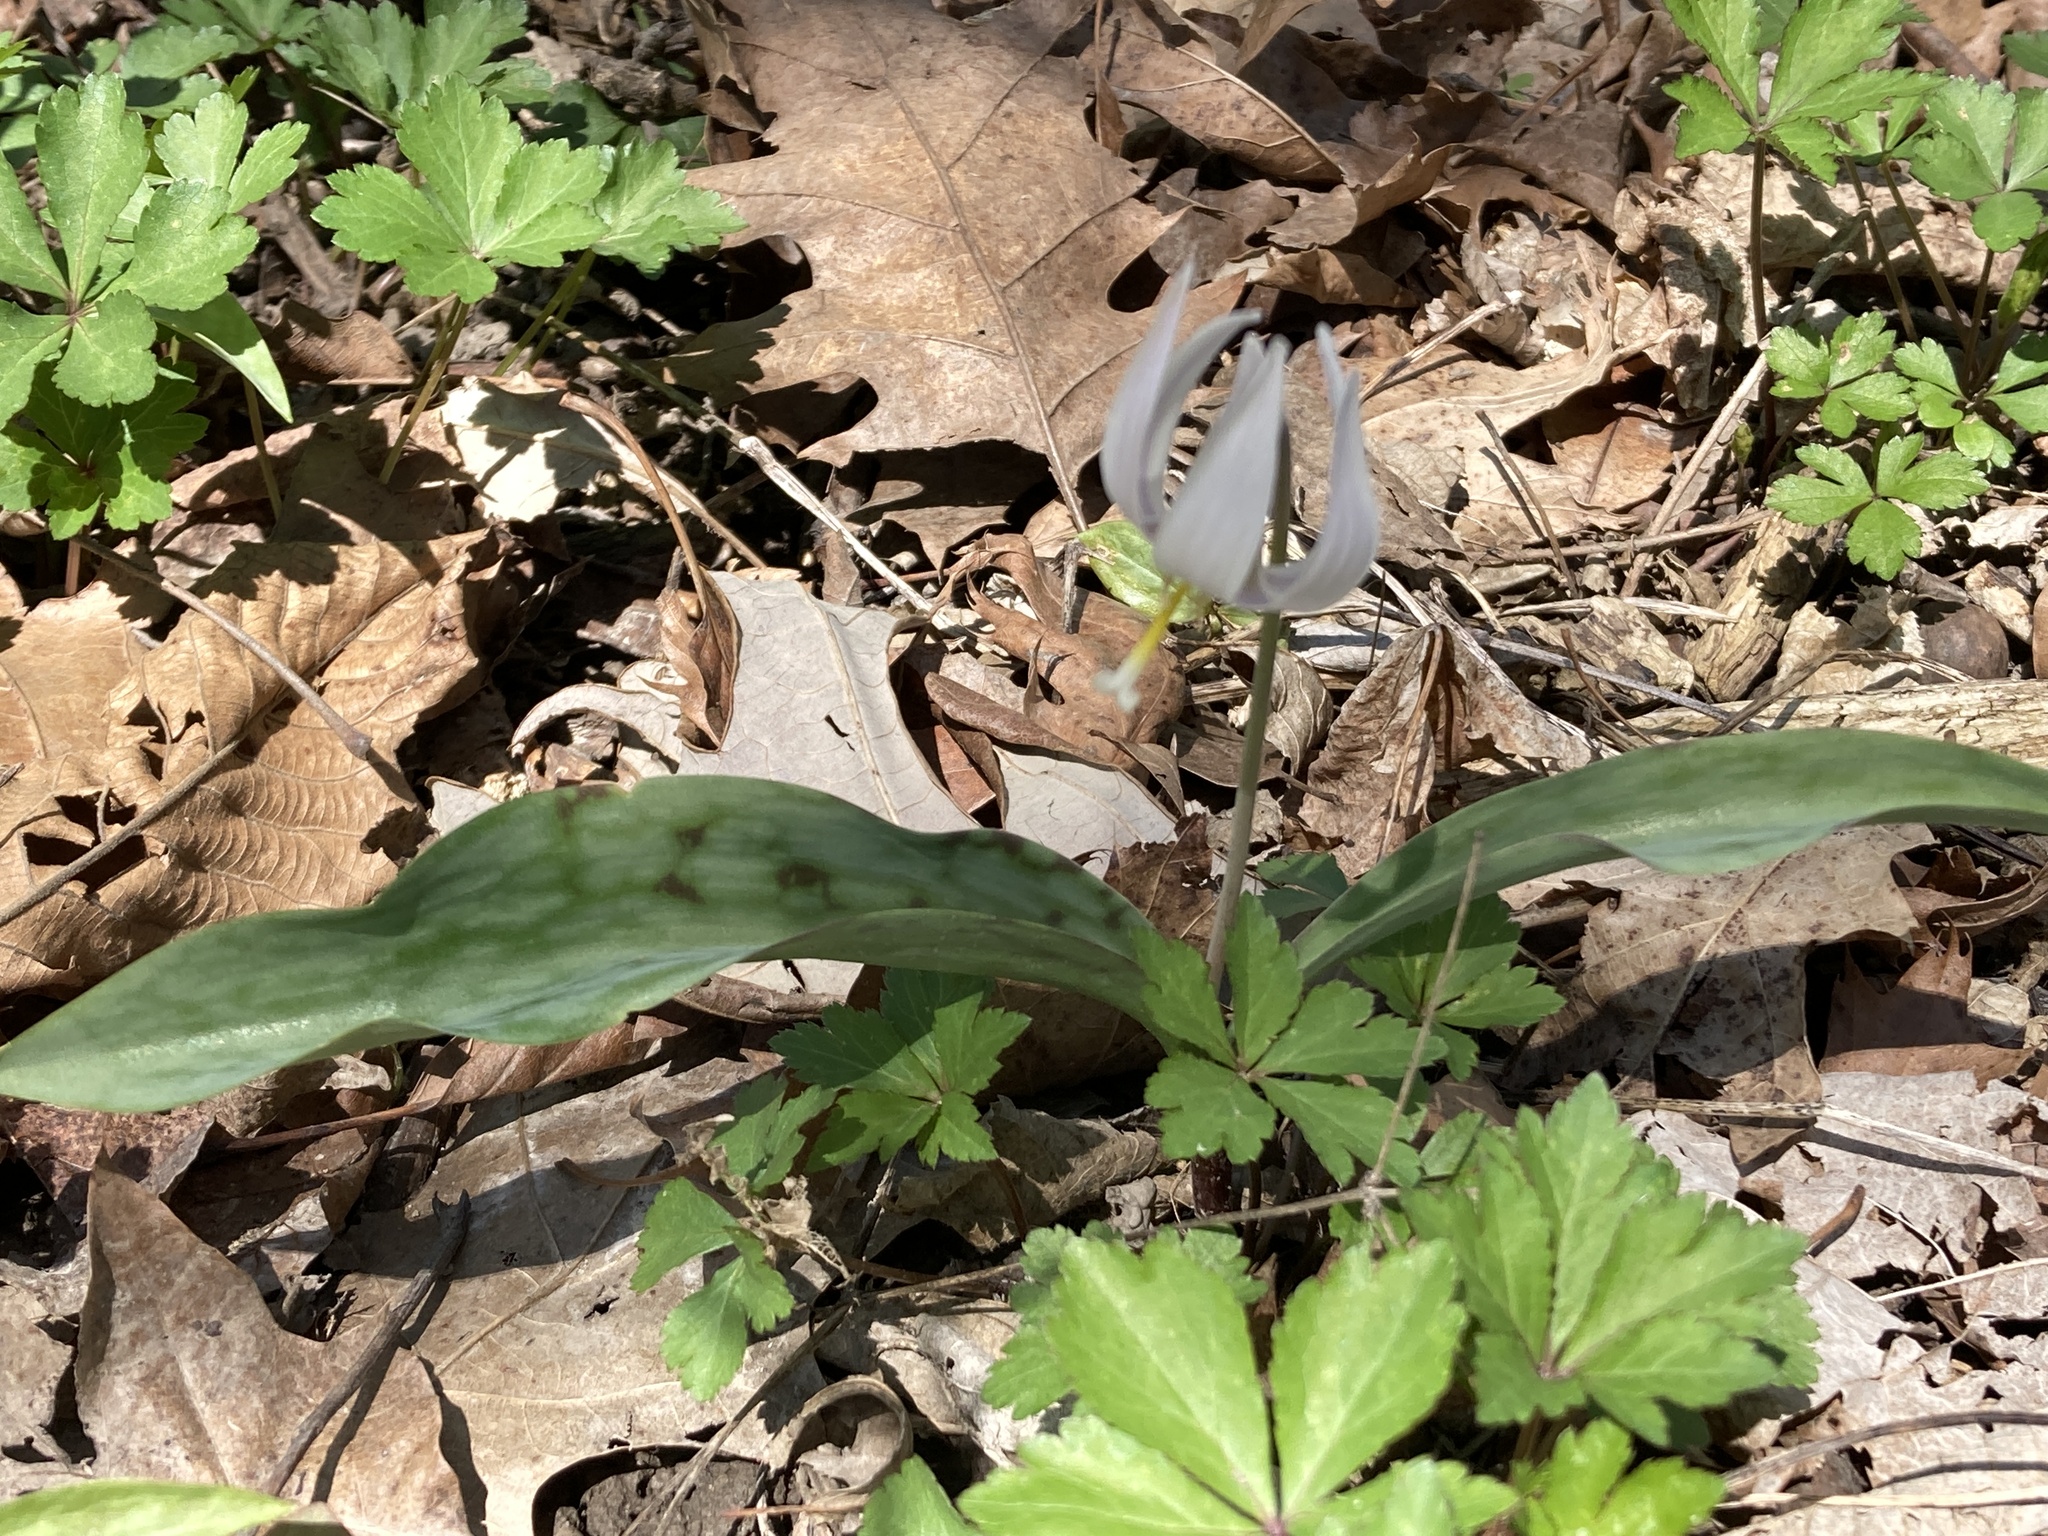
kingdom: Plantae
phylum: Tracheophyta
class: Liliopsida
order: Liliales
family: Liliaceae
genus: Erythronium
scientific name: Erythronium albidum
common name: White trout-lily
